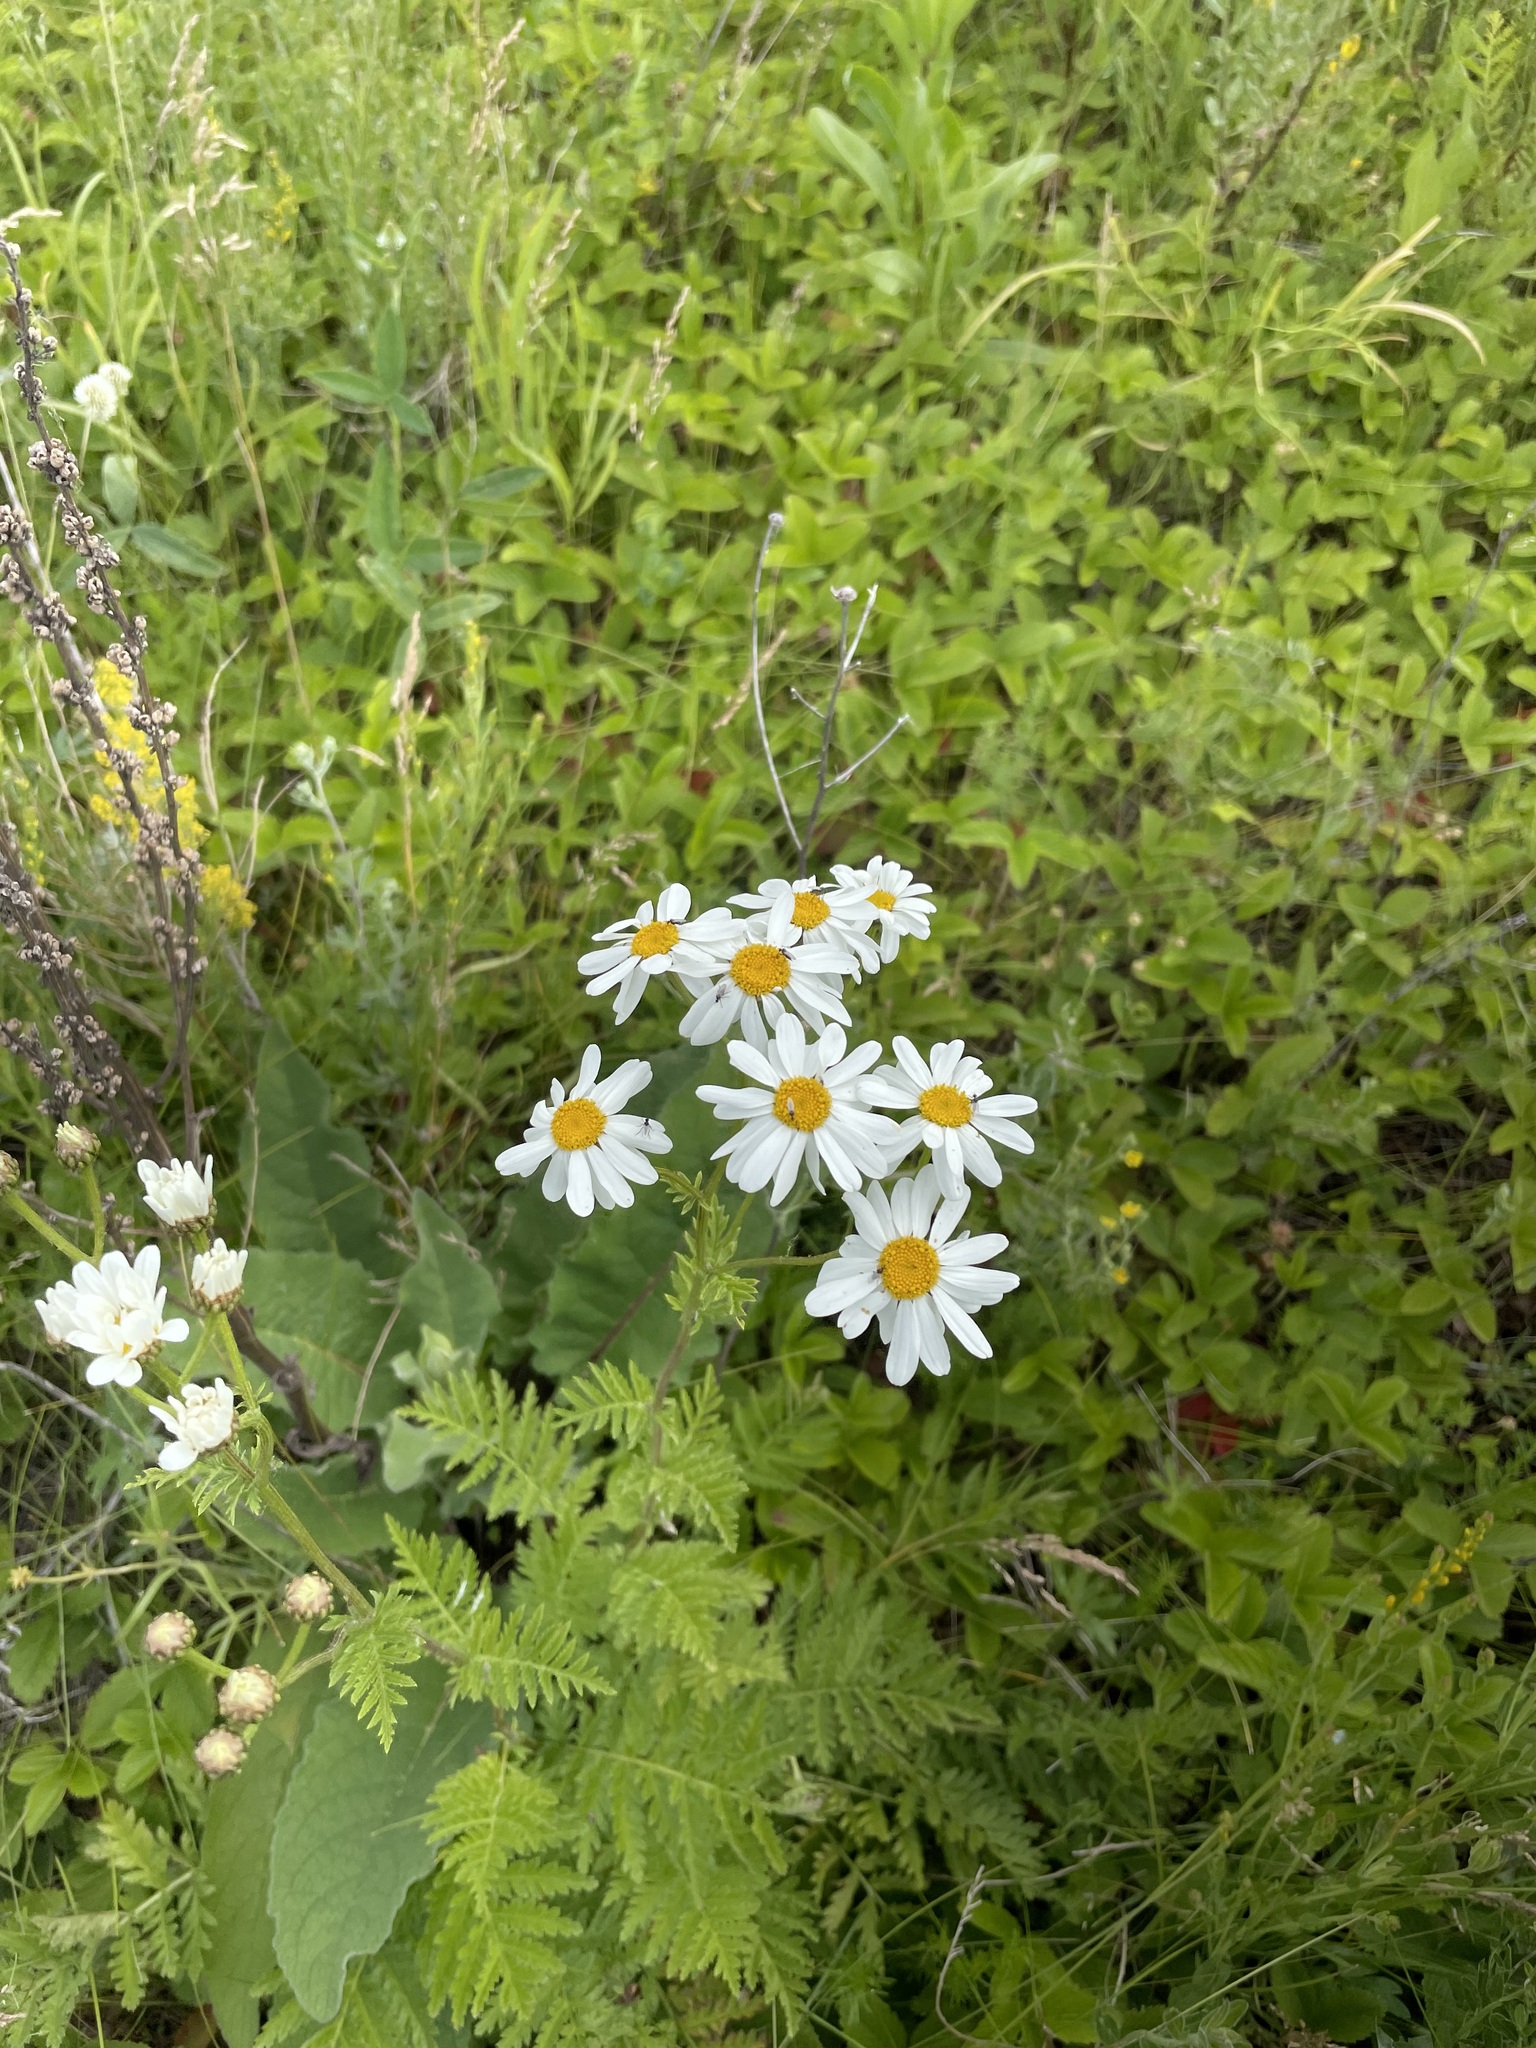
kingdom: Plantae
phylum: Tracheophyta
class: Magnoliopsida
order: Asterales
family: Asteraceae
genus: Tanacetum
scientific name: Tanacetum corymbosum
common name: Scentless feverfew
